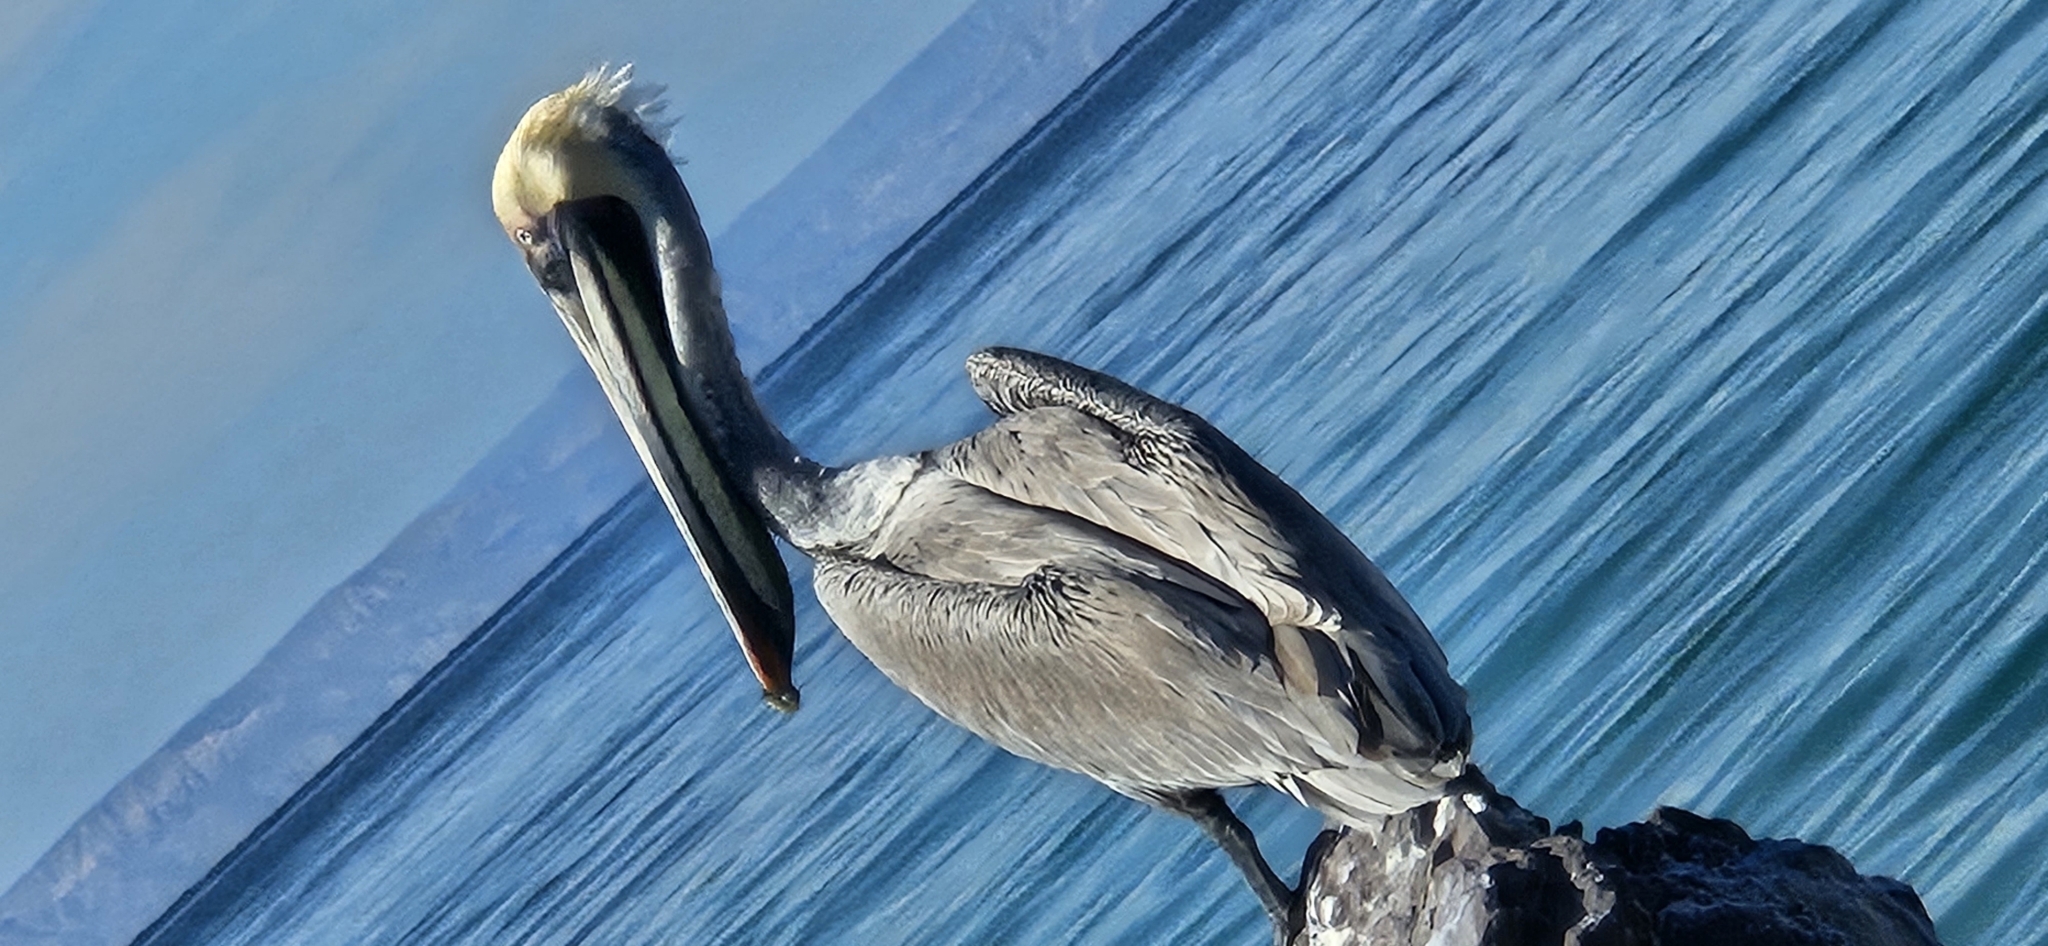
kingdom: Animalia
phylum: Chordata
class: Aves
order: Pelecaniformes
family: Pelecanidae
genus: Pelecanus
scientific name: Pelecanus occidentalis
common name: Brown pelican
